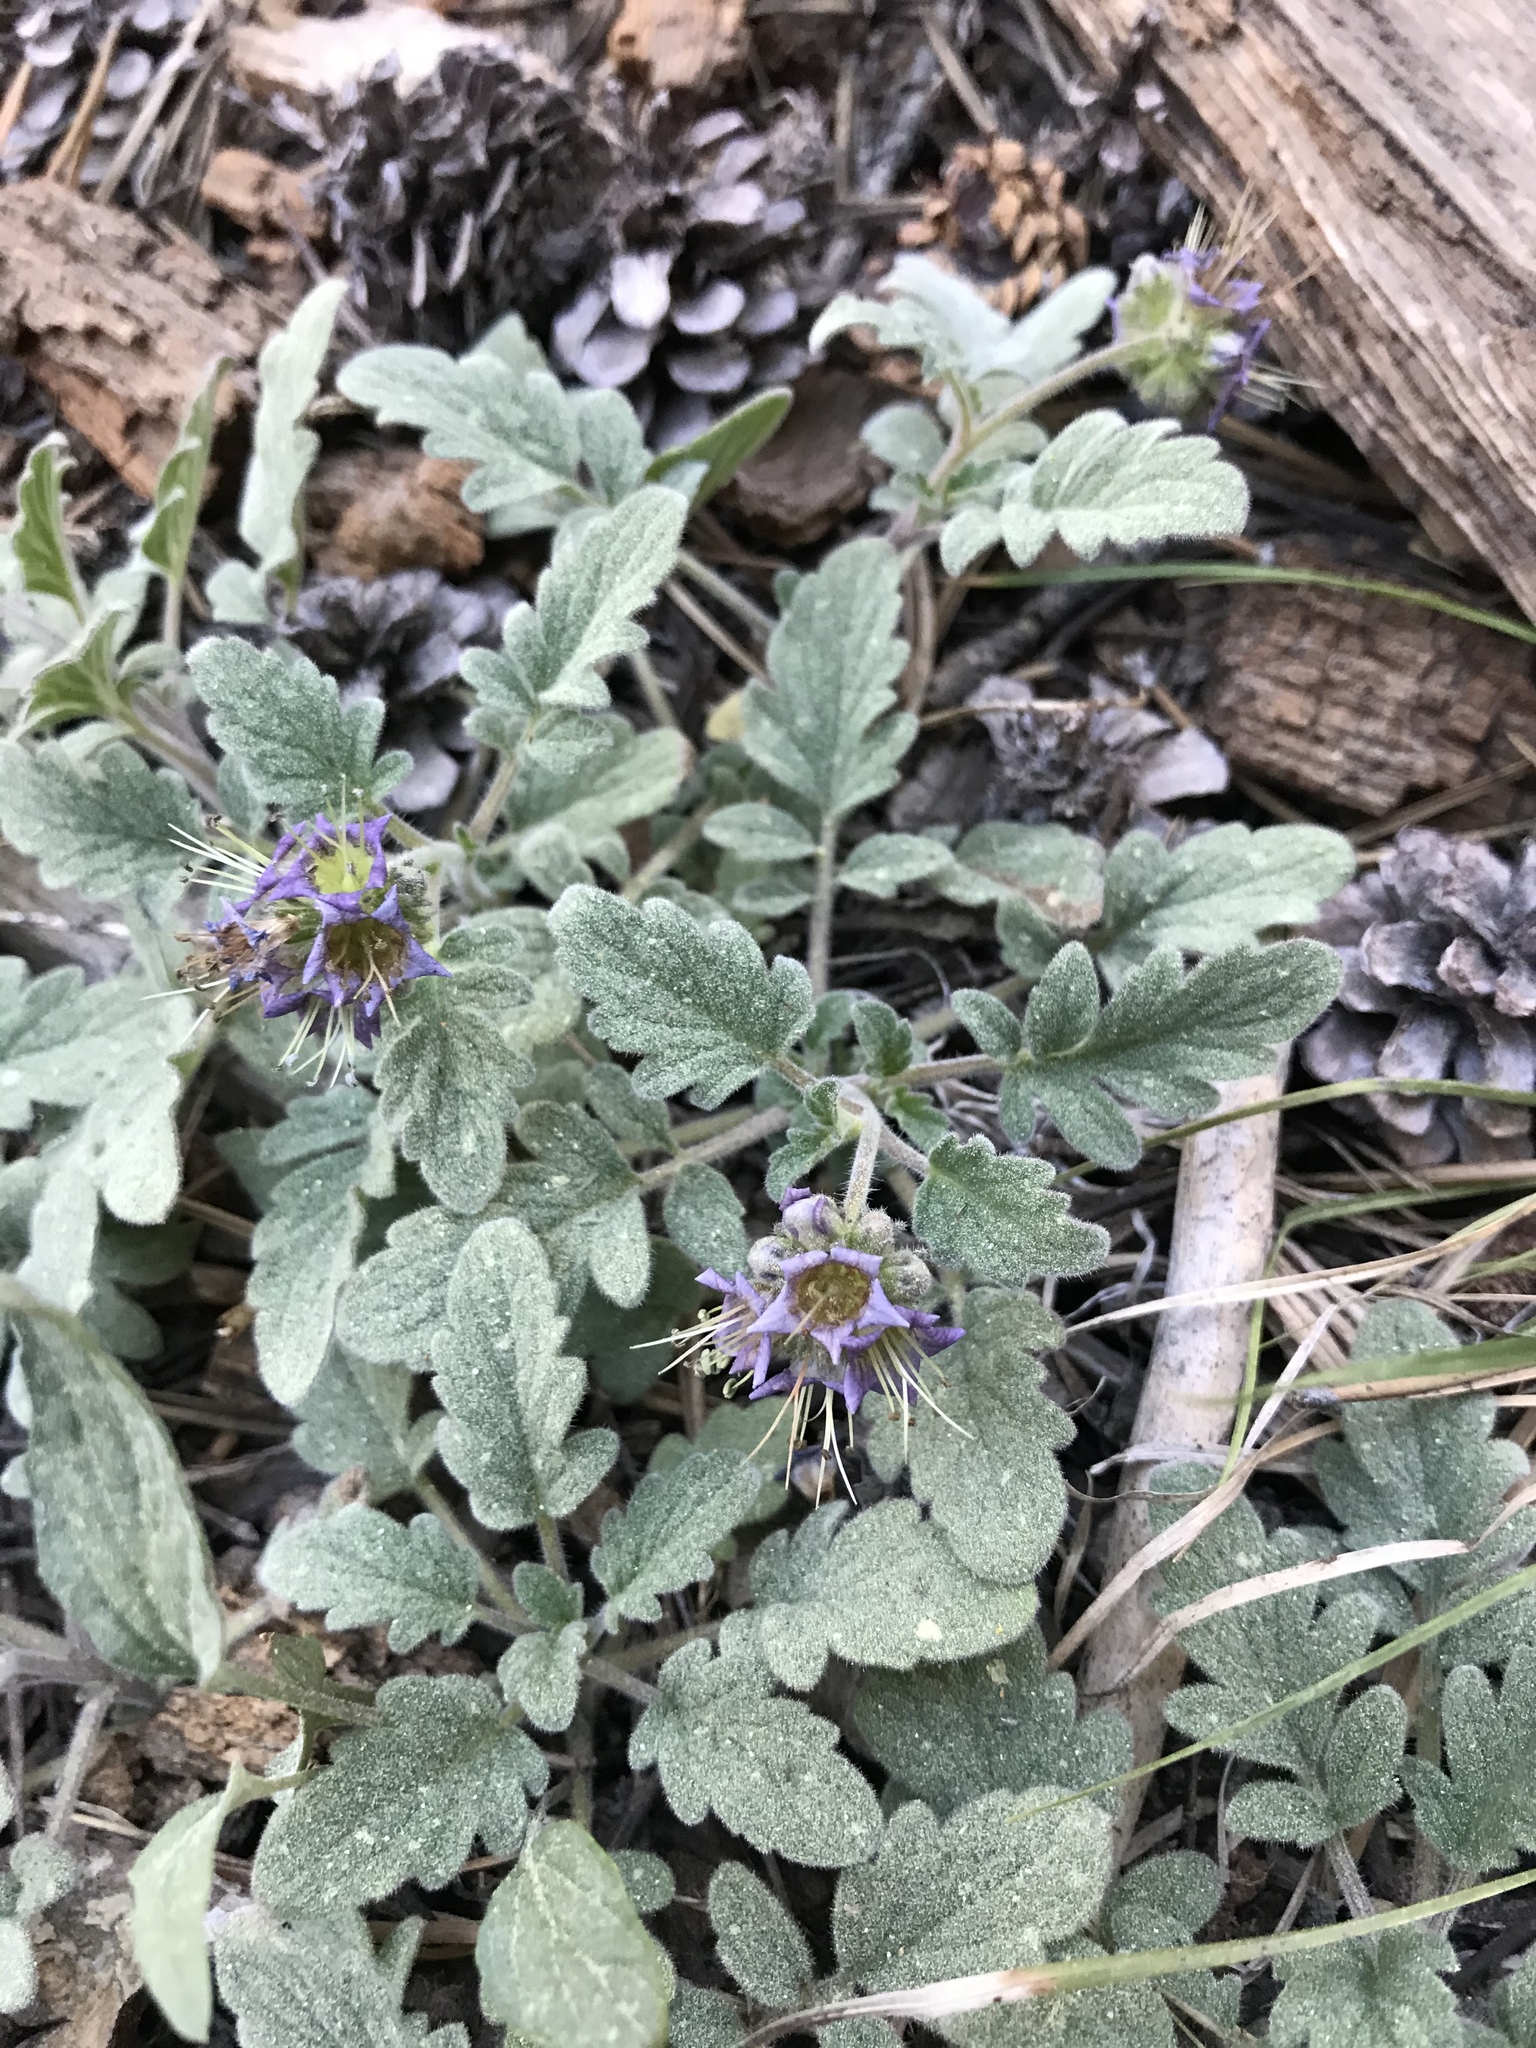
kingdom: Plantae
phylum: Tracheophyta
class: Magnoliopsida
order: Boraginales
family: Hydrophyllaceae
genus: Phacelia
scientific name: Phacelia hydrophylloides
